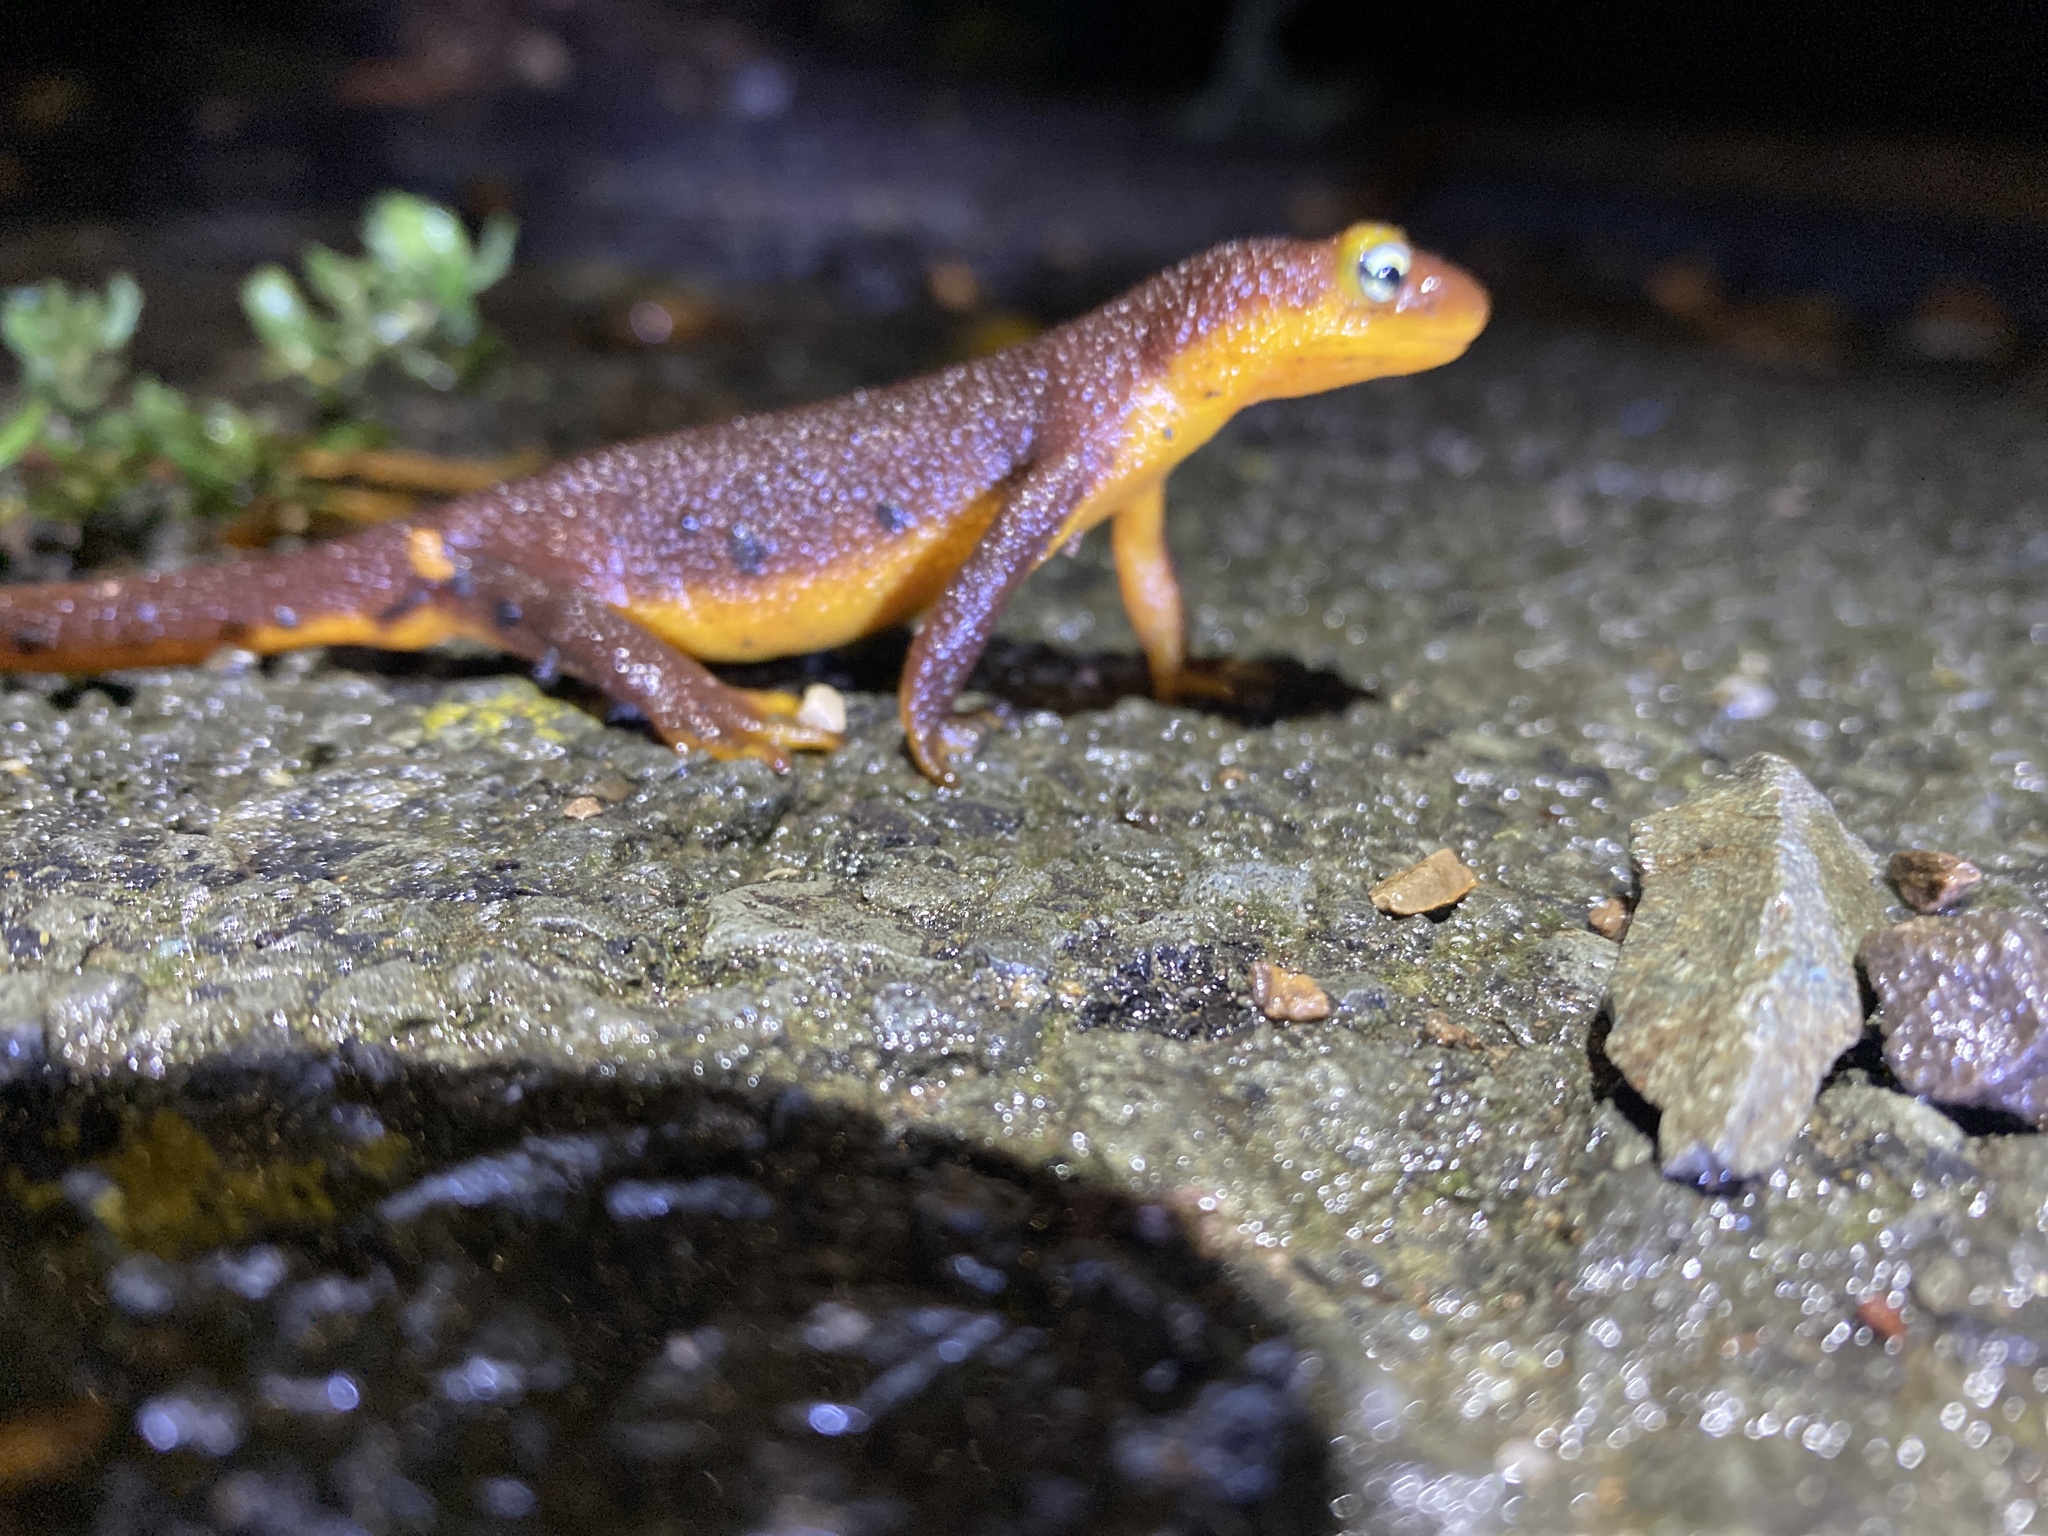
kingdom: Animalia
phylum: Chordata
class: Amphibia
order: Caudata
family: Salamandridae
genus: Taricha
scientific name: Taricha torosa
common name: California newt
